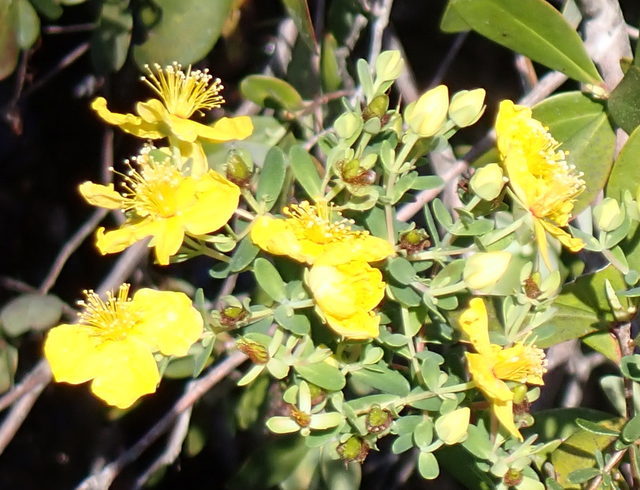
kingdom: Plantae
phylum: Tracheophyta
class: Magnoliopsida
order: Malpighiales
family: Hypericaceae
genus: Hypericum
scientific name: Hypericum microsepalum
